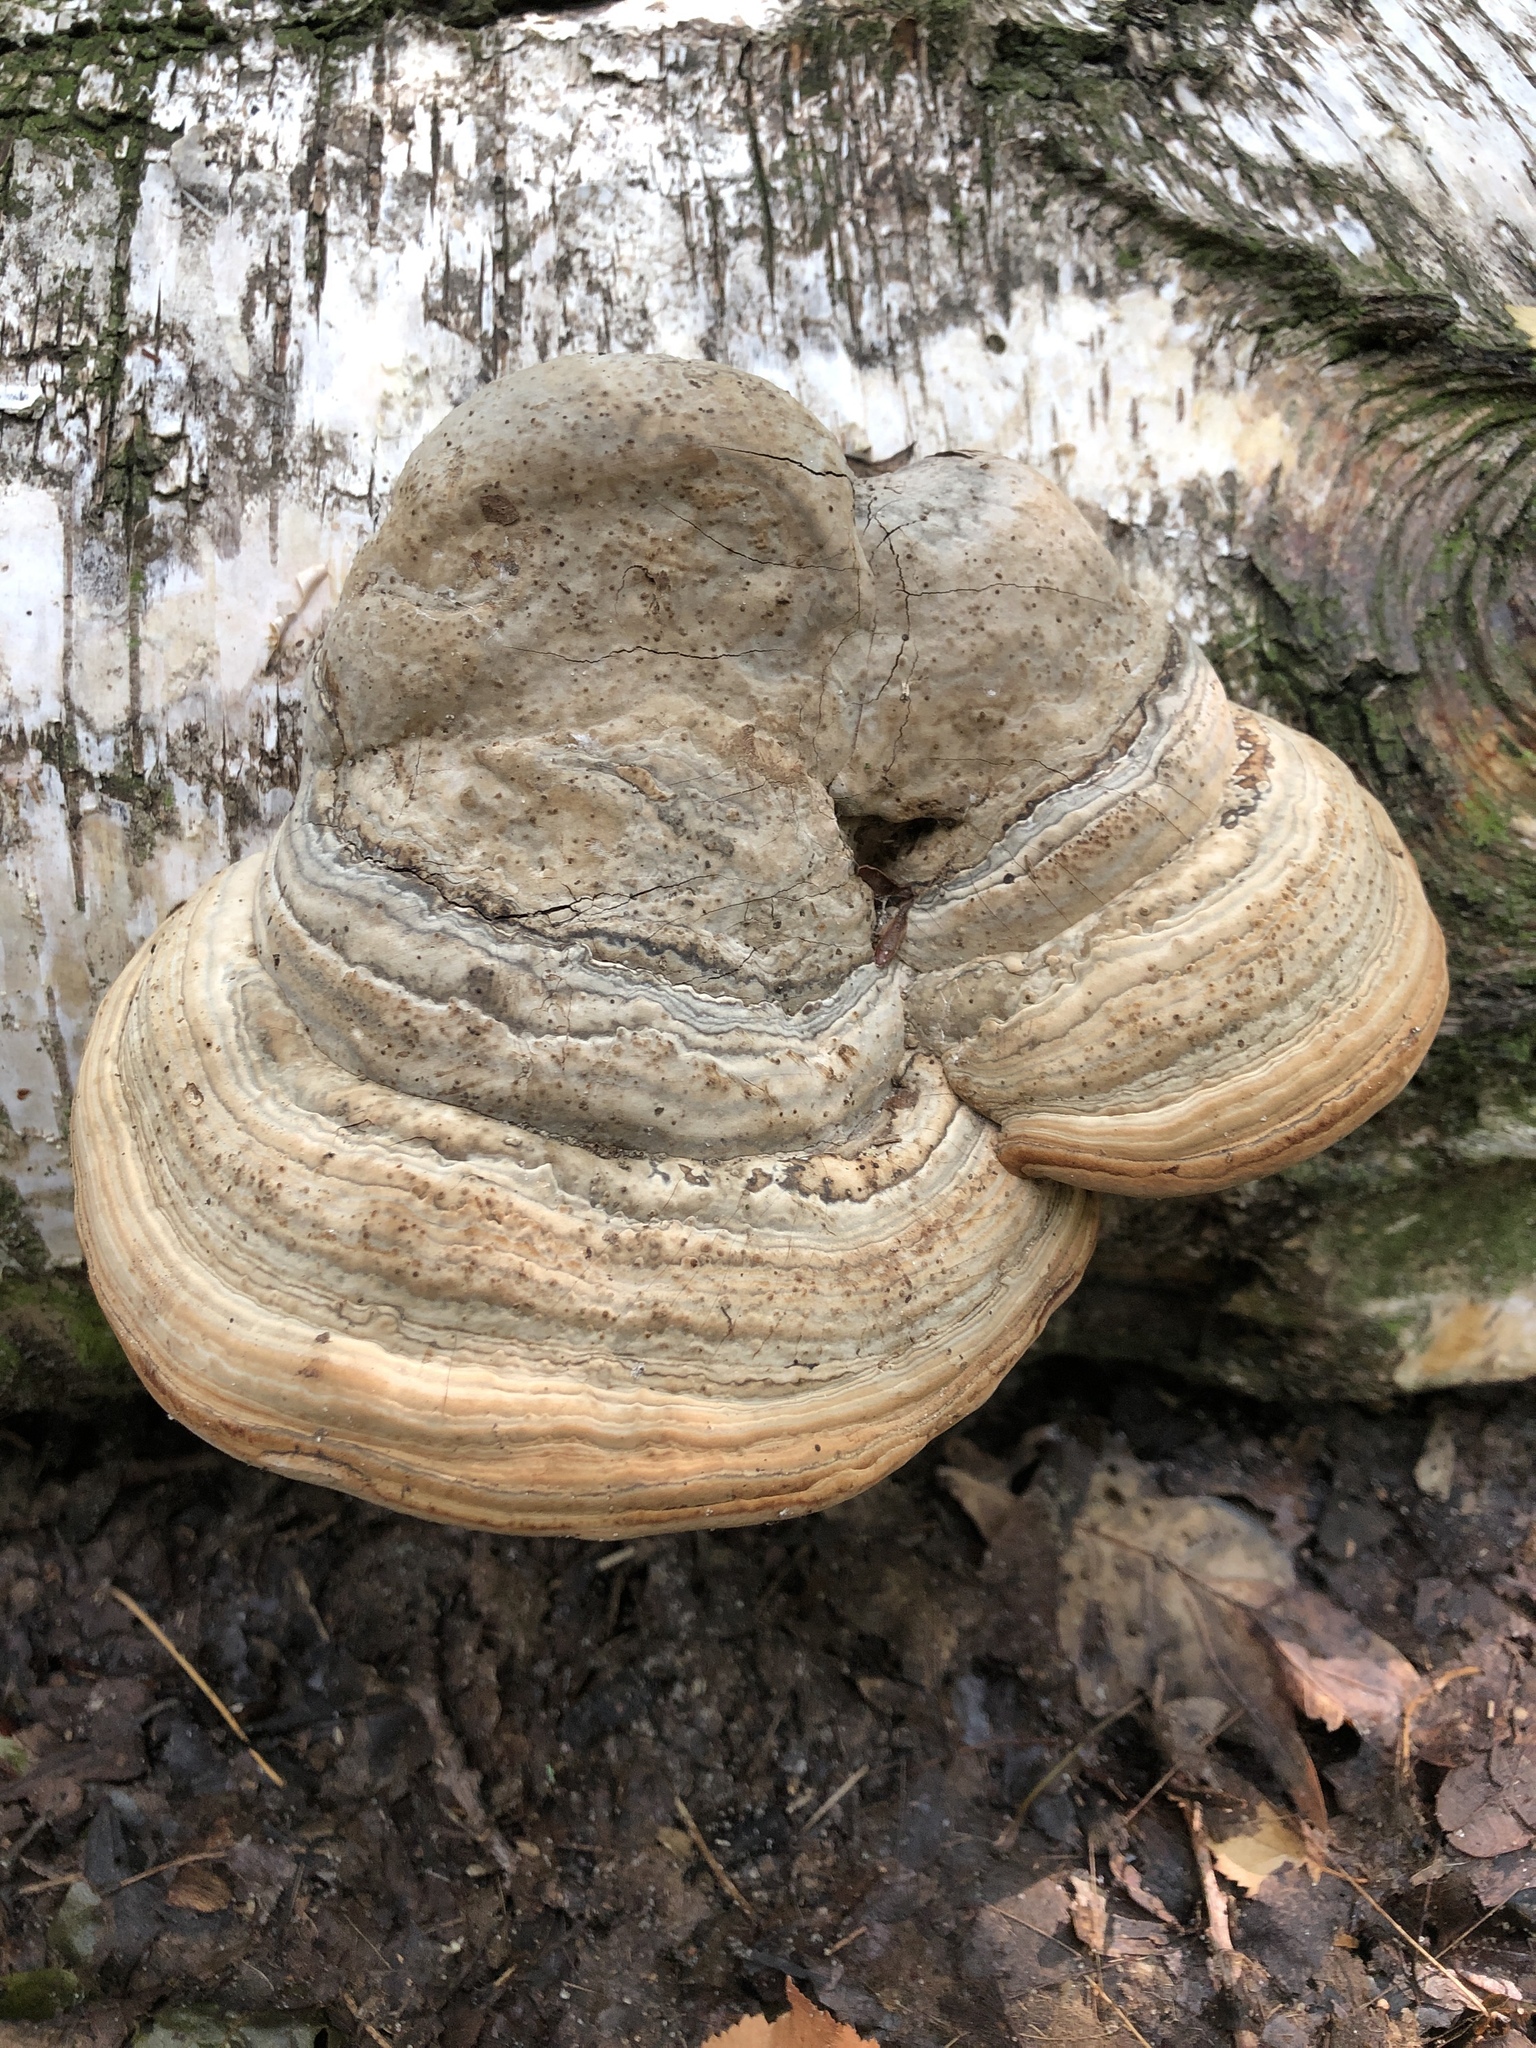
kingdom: Fungi
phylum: Basidiomycota
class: Agaricomycetes
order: Polyporales
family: Polyporaceae
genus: Fomes
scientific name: Fomes fomentarius
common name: Hoof fungus
